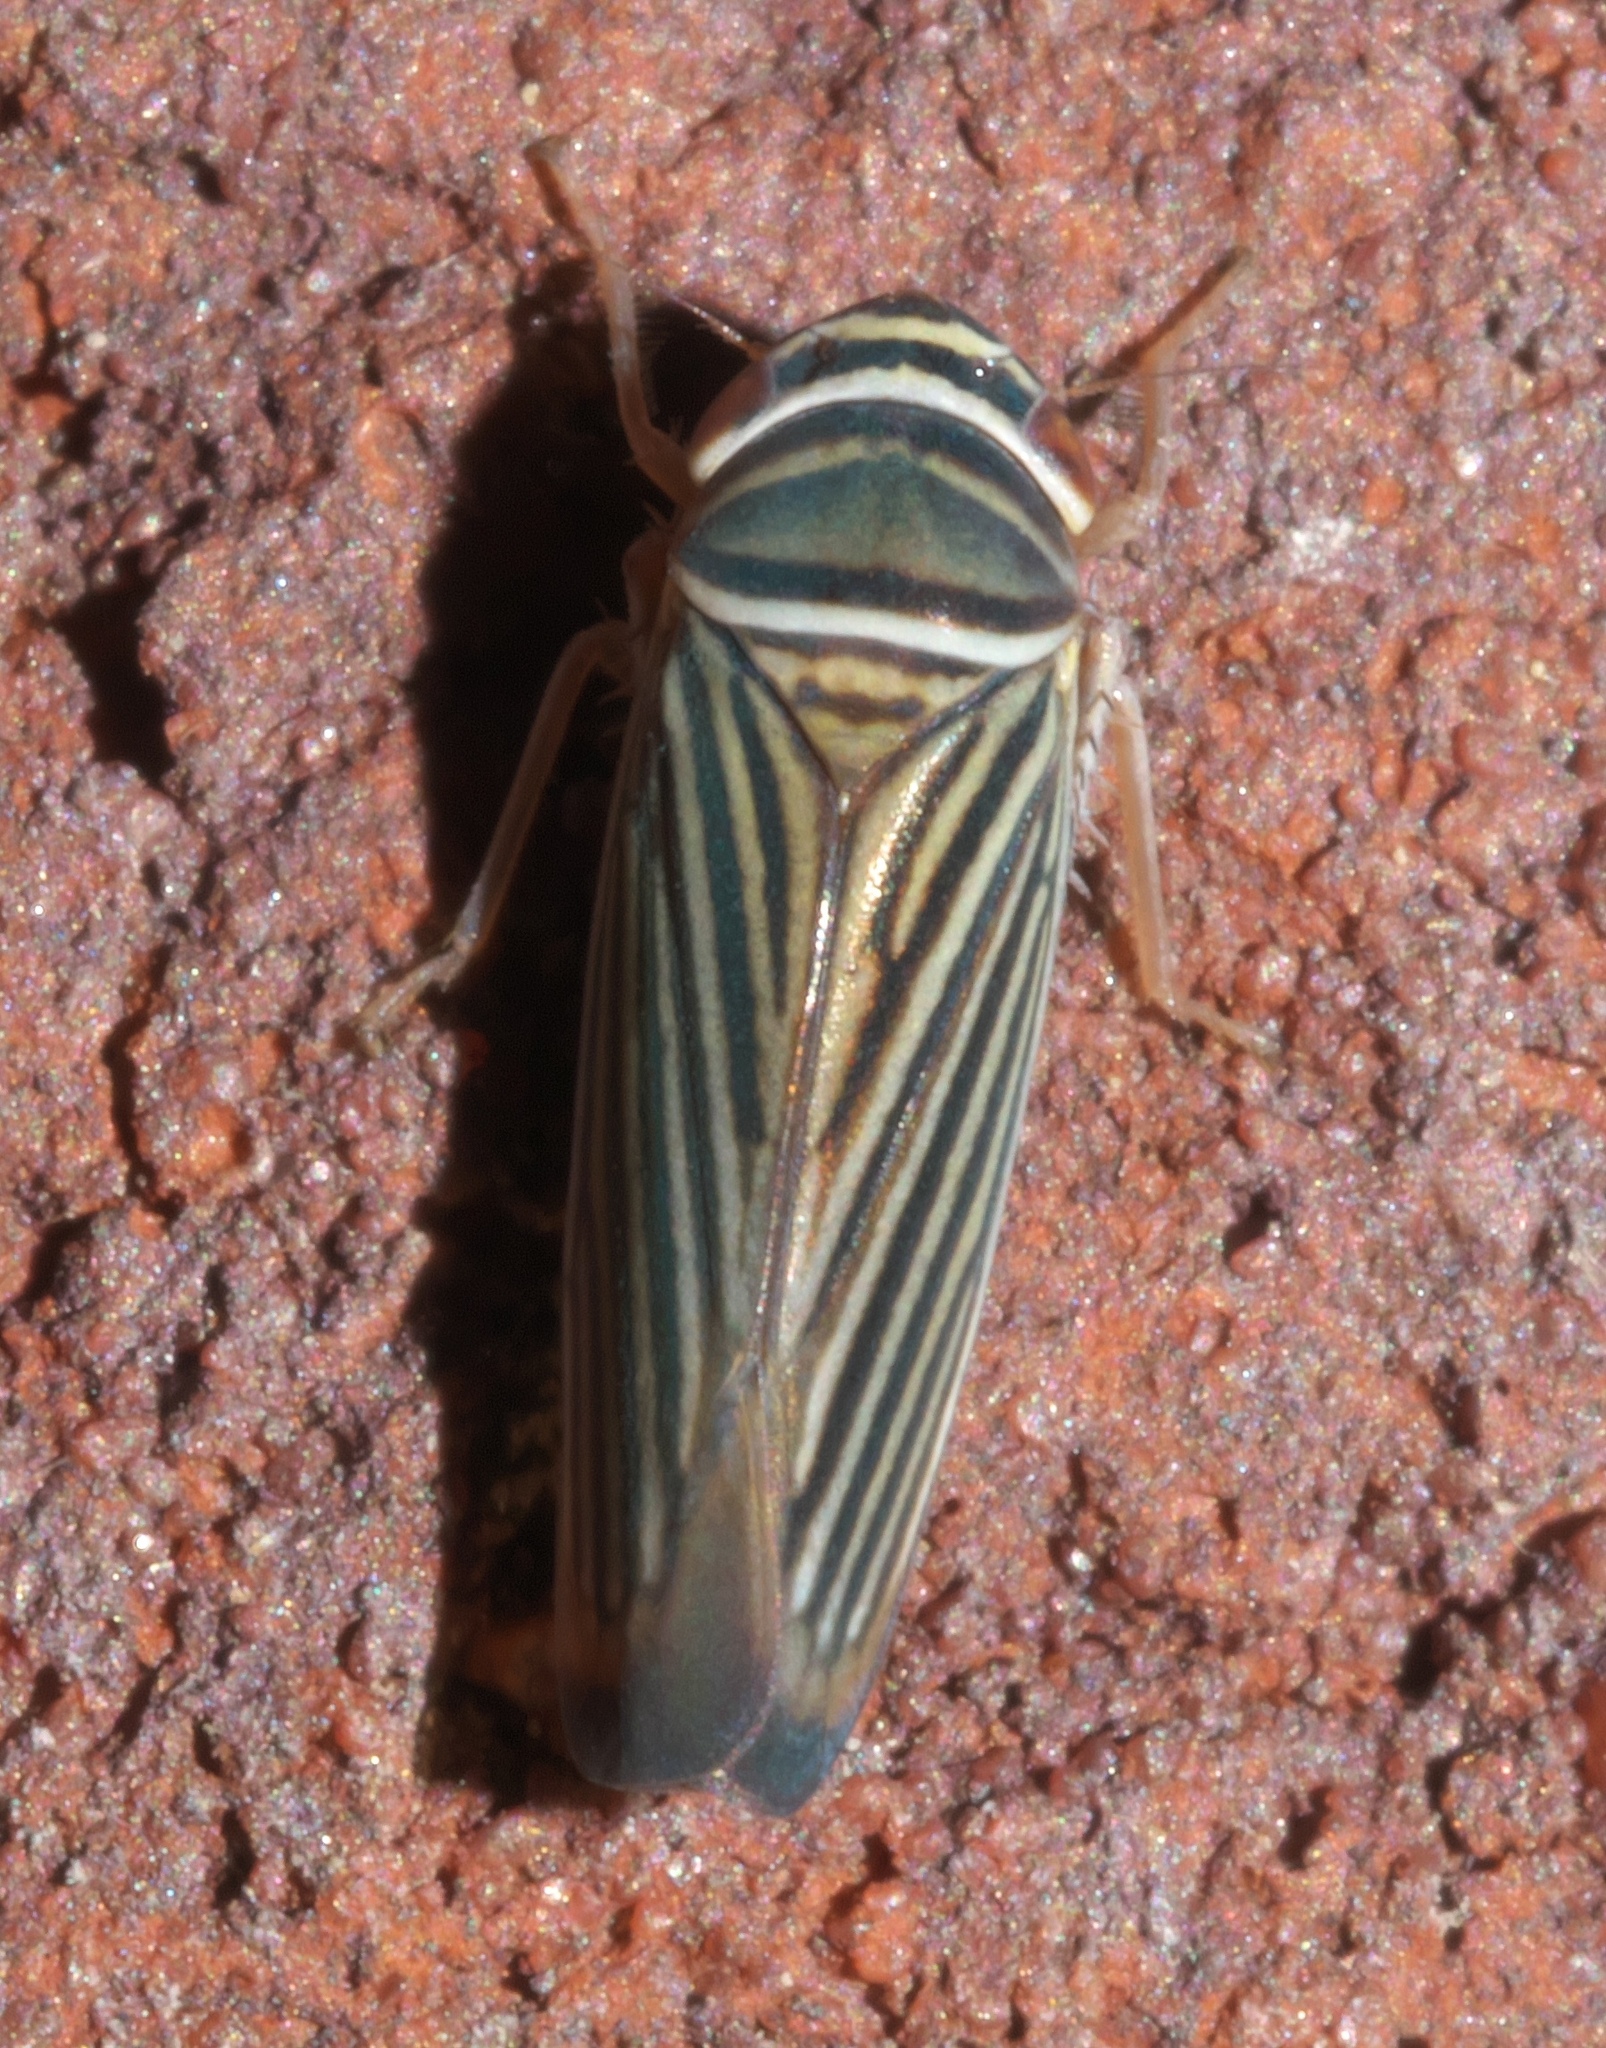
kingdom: Animalia
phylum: Arthropoda
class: Insecta
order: Hemiptera
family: Cicadellidae
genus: Tylozygus
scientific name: Tylozygus bifidus
